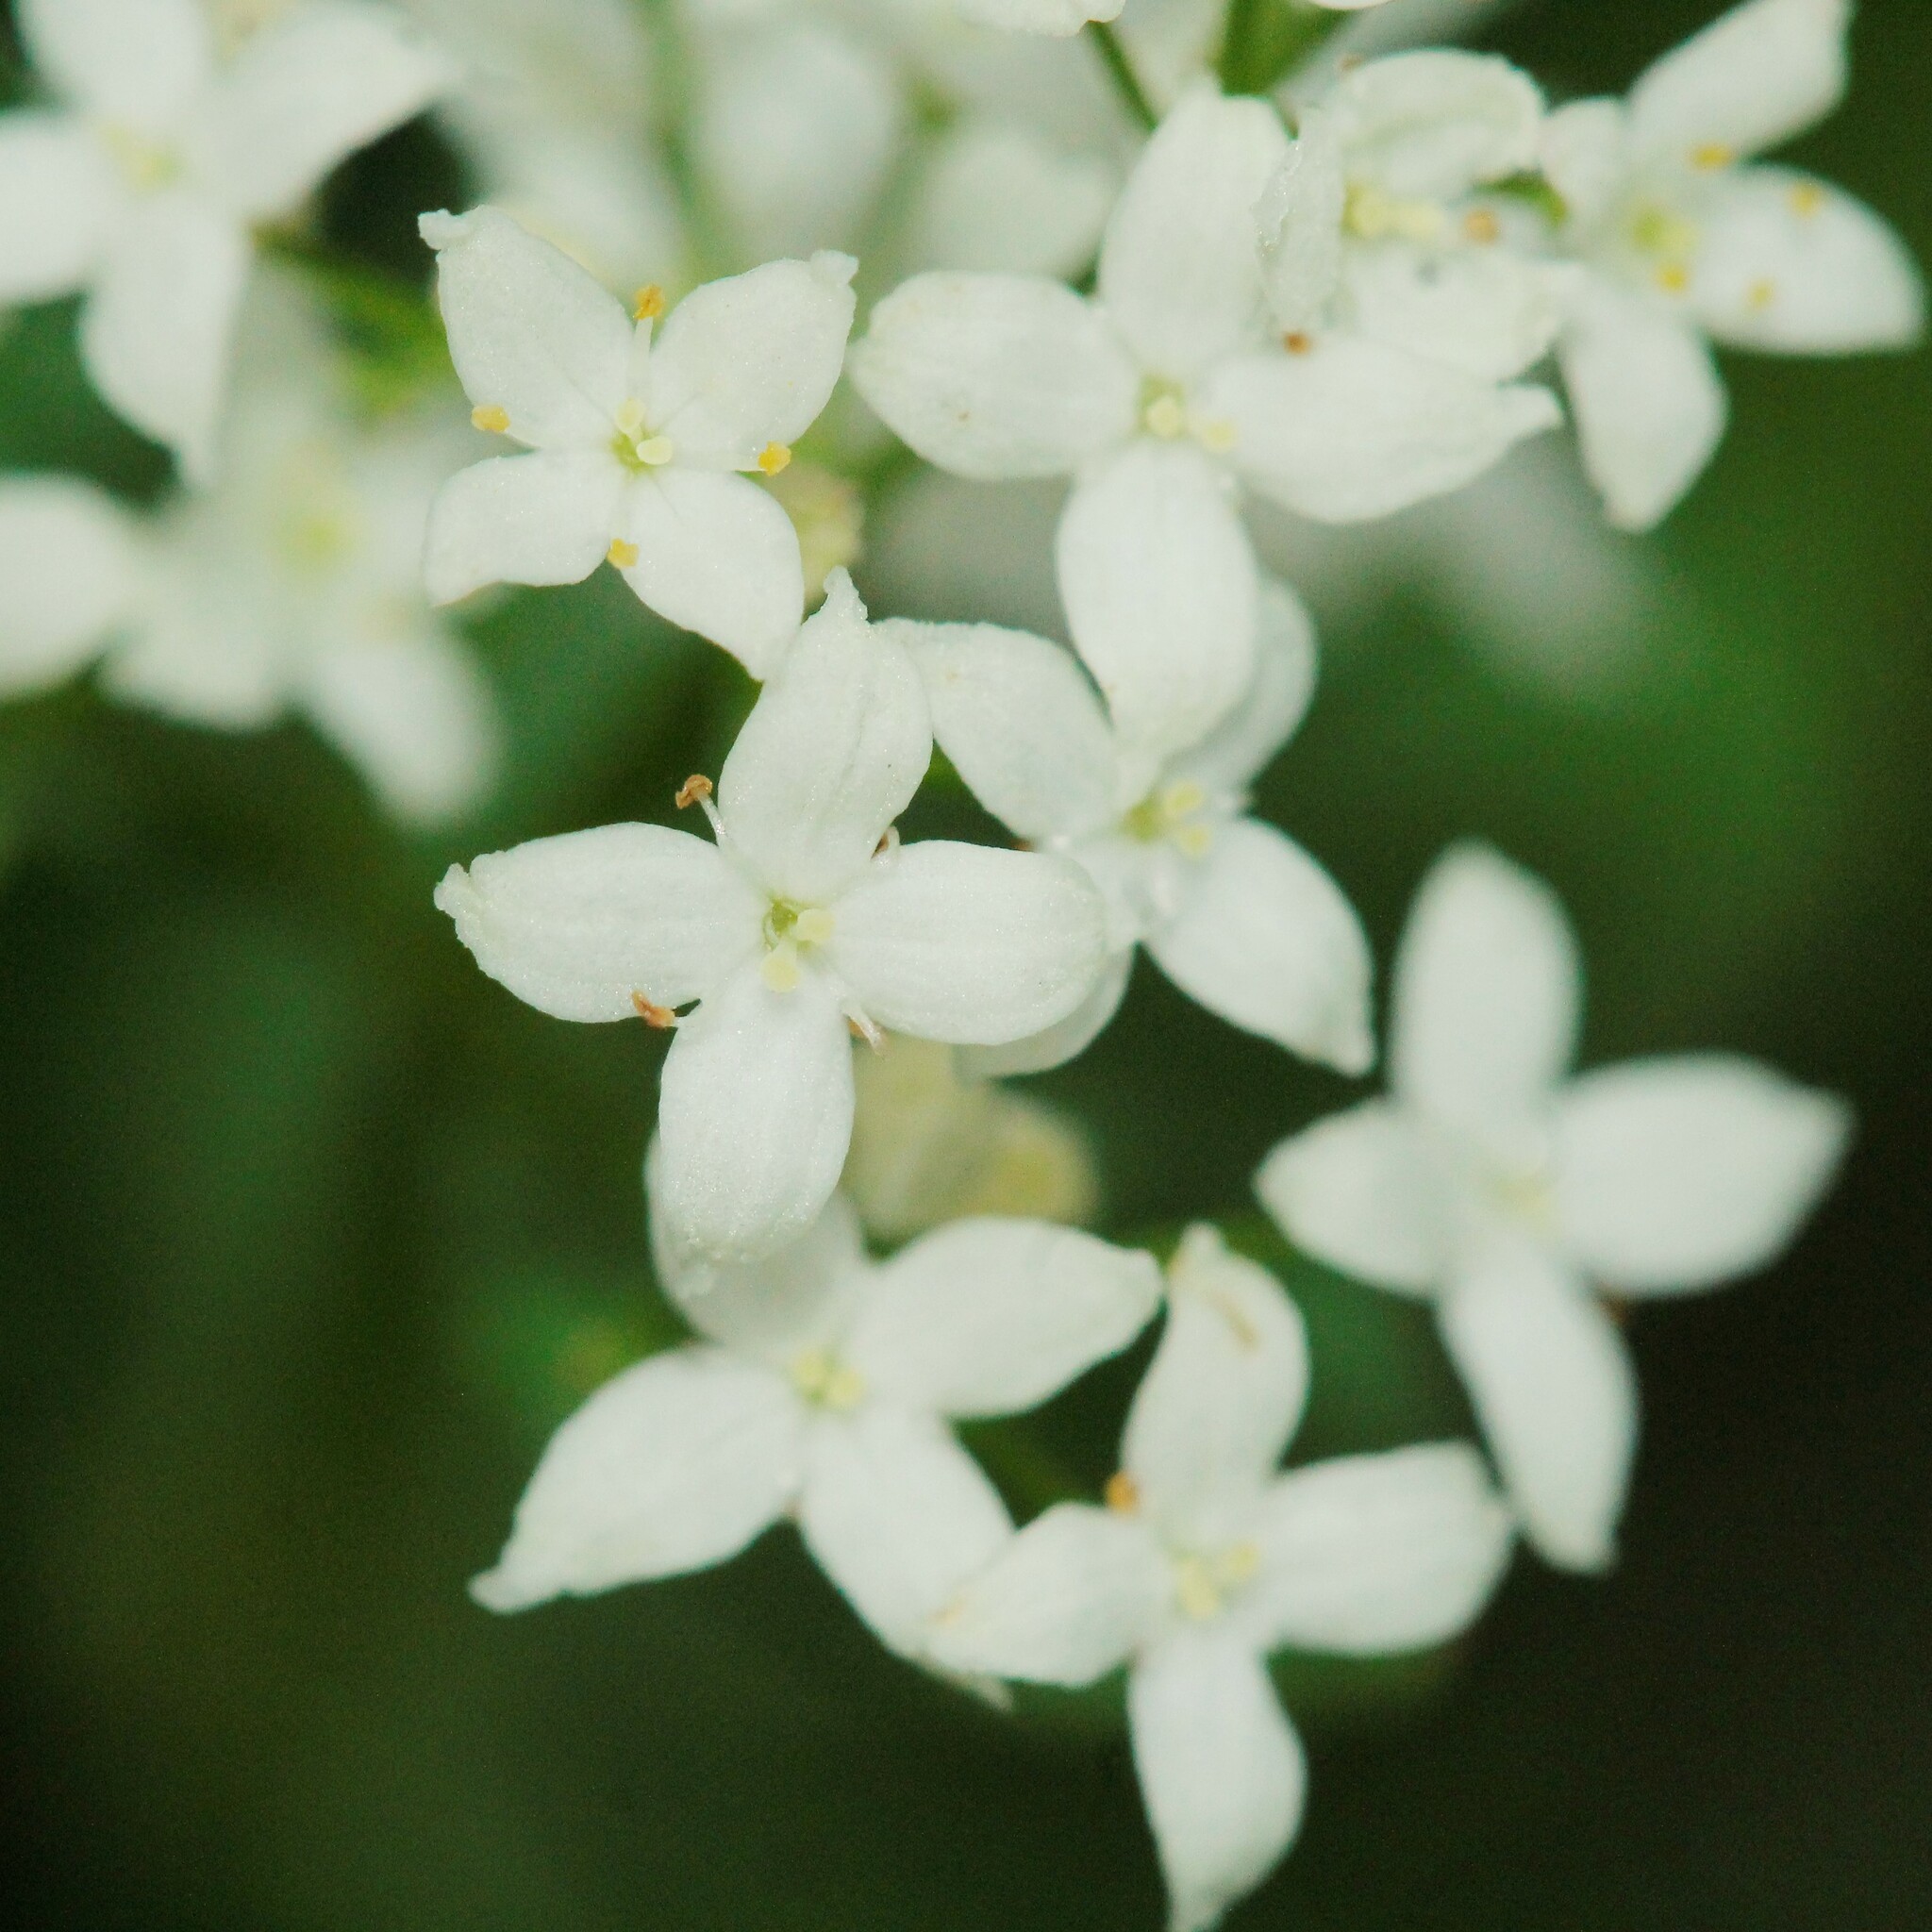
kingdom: Plantae
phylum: Tracheophyta
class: Magnoliopsida
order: Gentianales
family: Rubiaceae
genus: Galium
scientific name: Galium boreale
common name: Northern bedstraw
